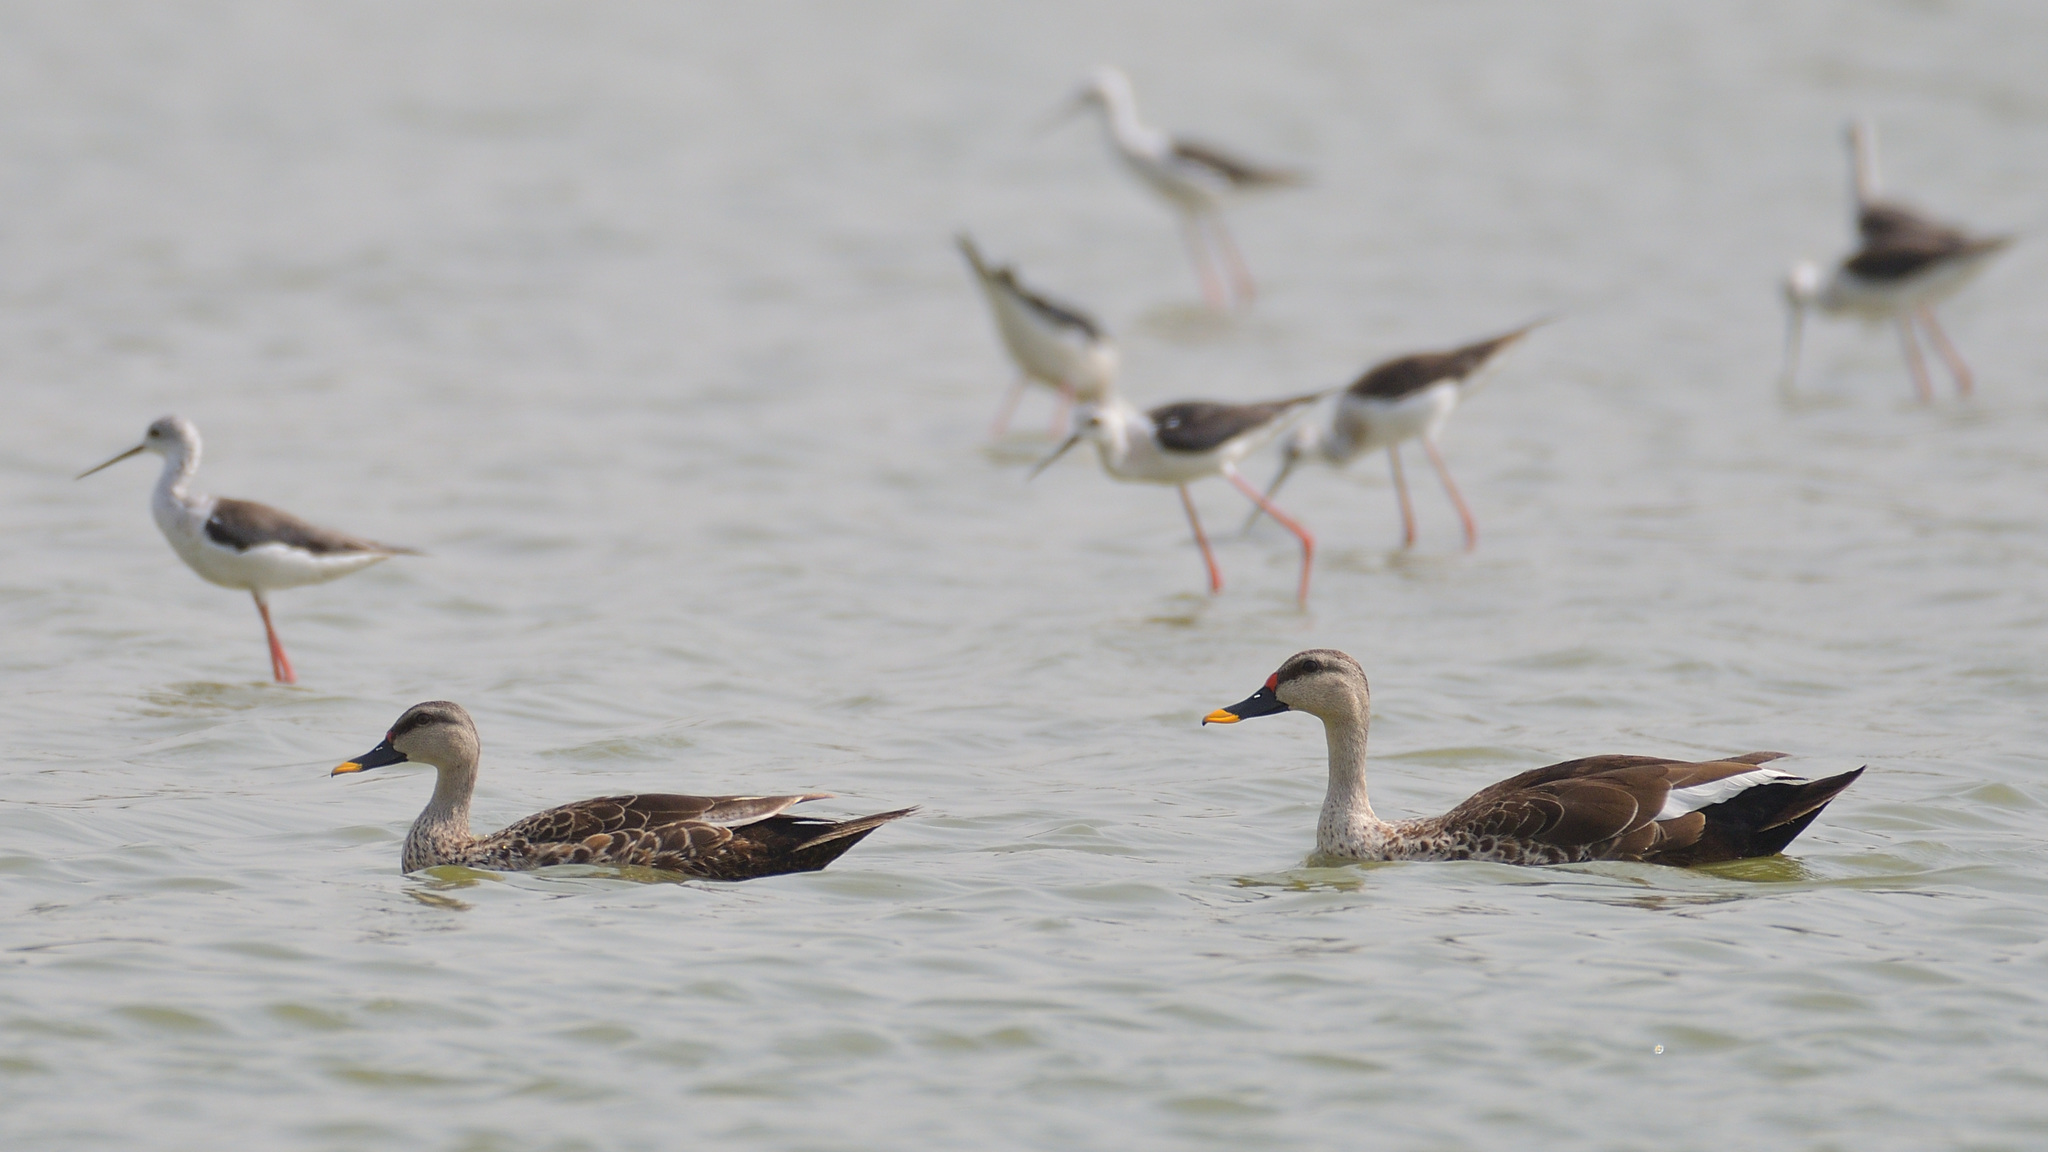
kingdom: Animalia
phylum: Chordata
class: Aves
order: Anseriformes
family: Anatidae
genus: Anas
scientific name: Anas poecilorhyncha
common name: Indian spot-billed duck
